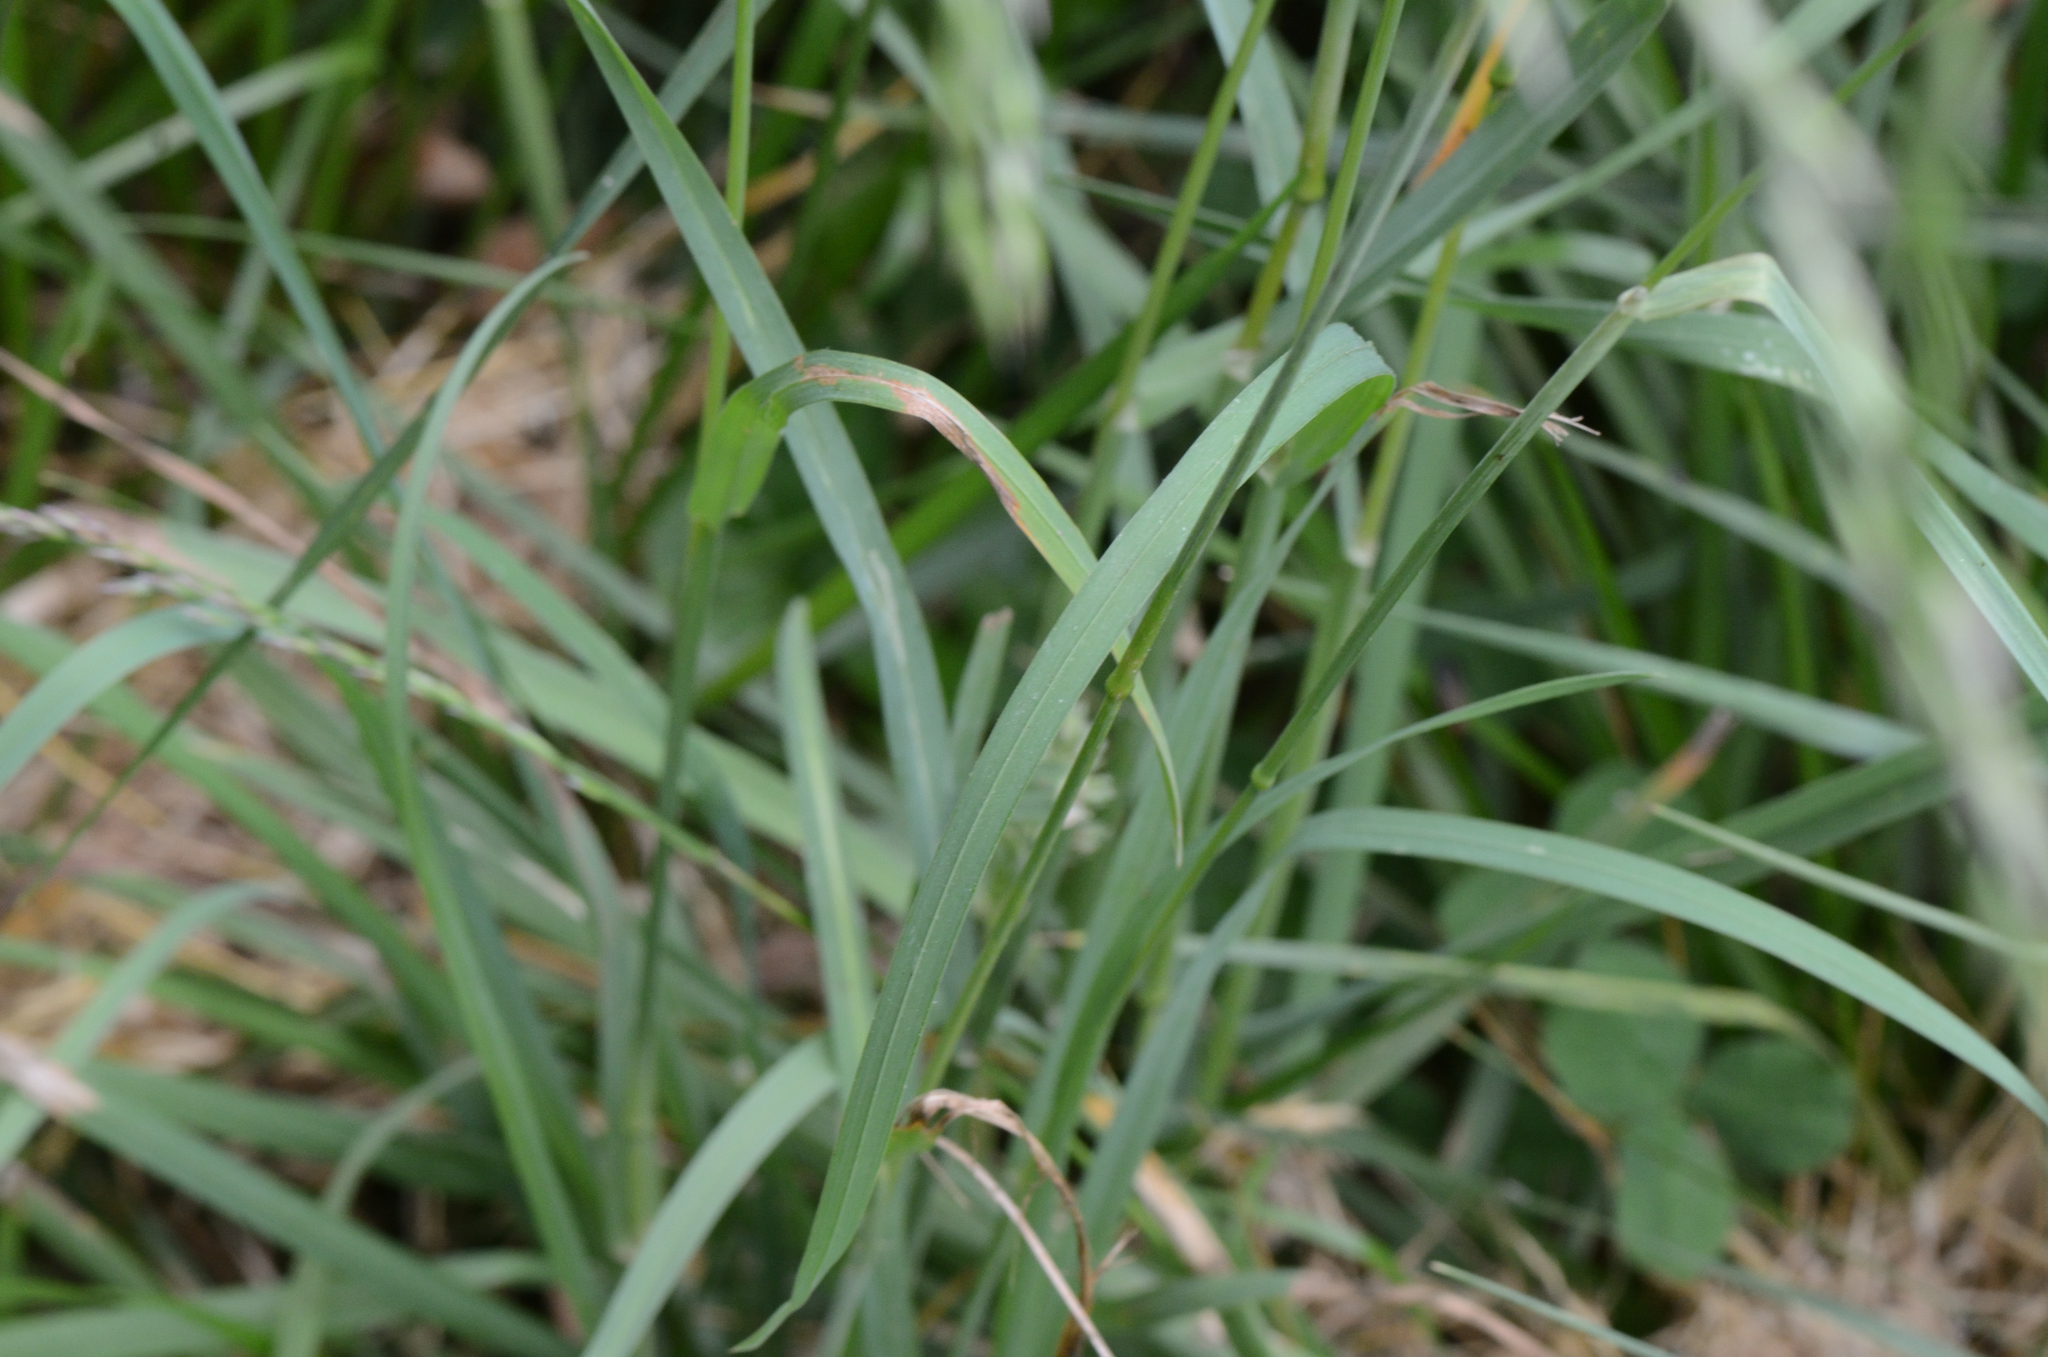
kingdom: Plantae
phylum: Tracheophyta
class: Liliopsida
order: Poales
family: Poaceae
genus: Dactylis
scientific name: Dactylis glomerata
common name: Orchardgrass
